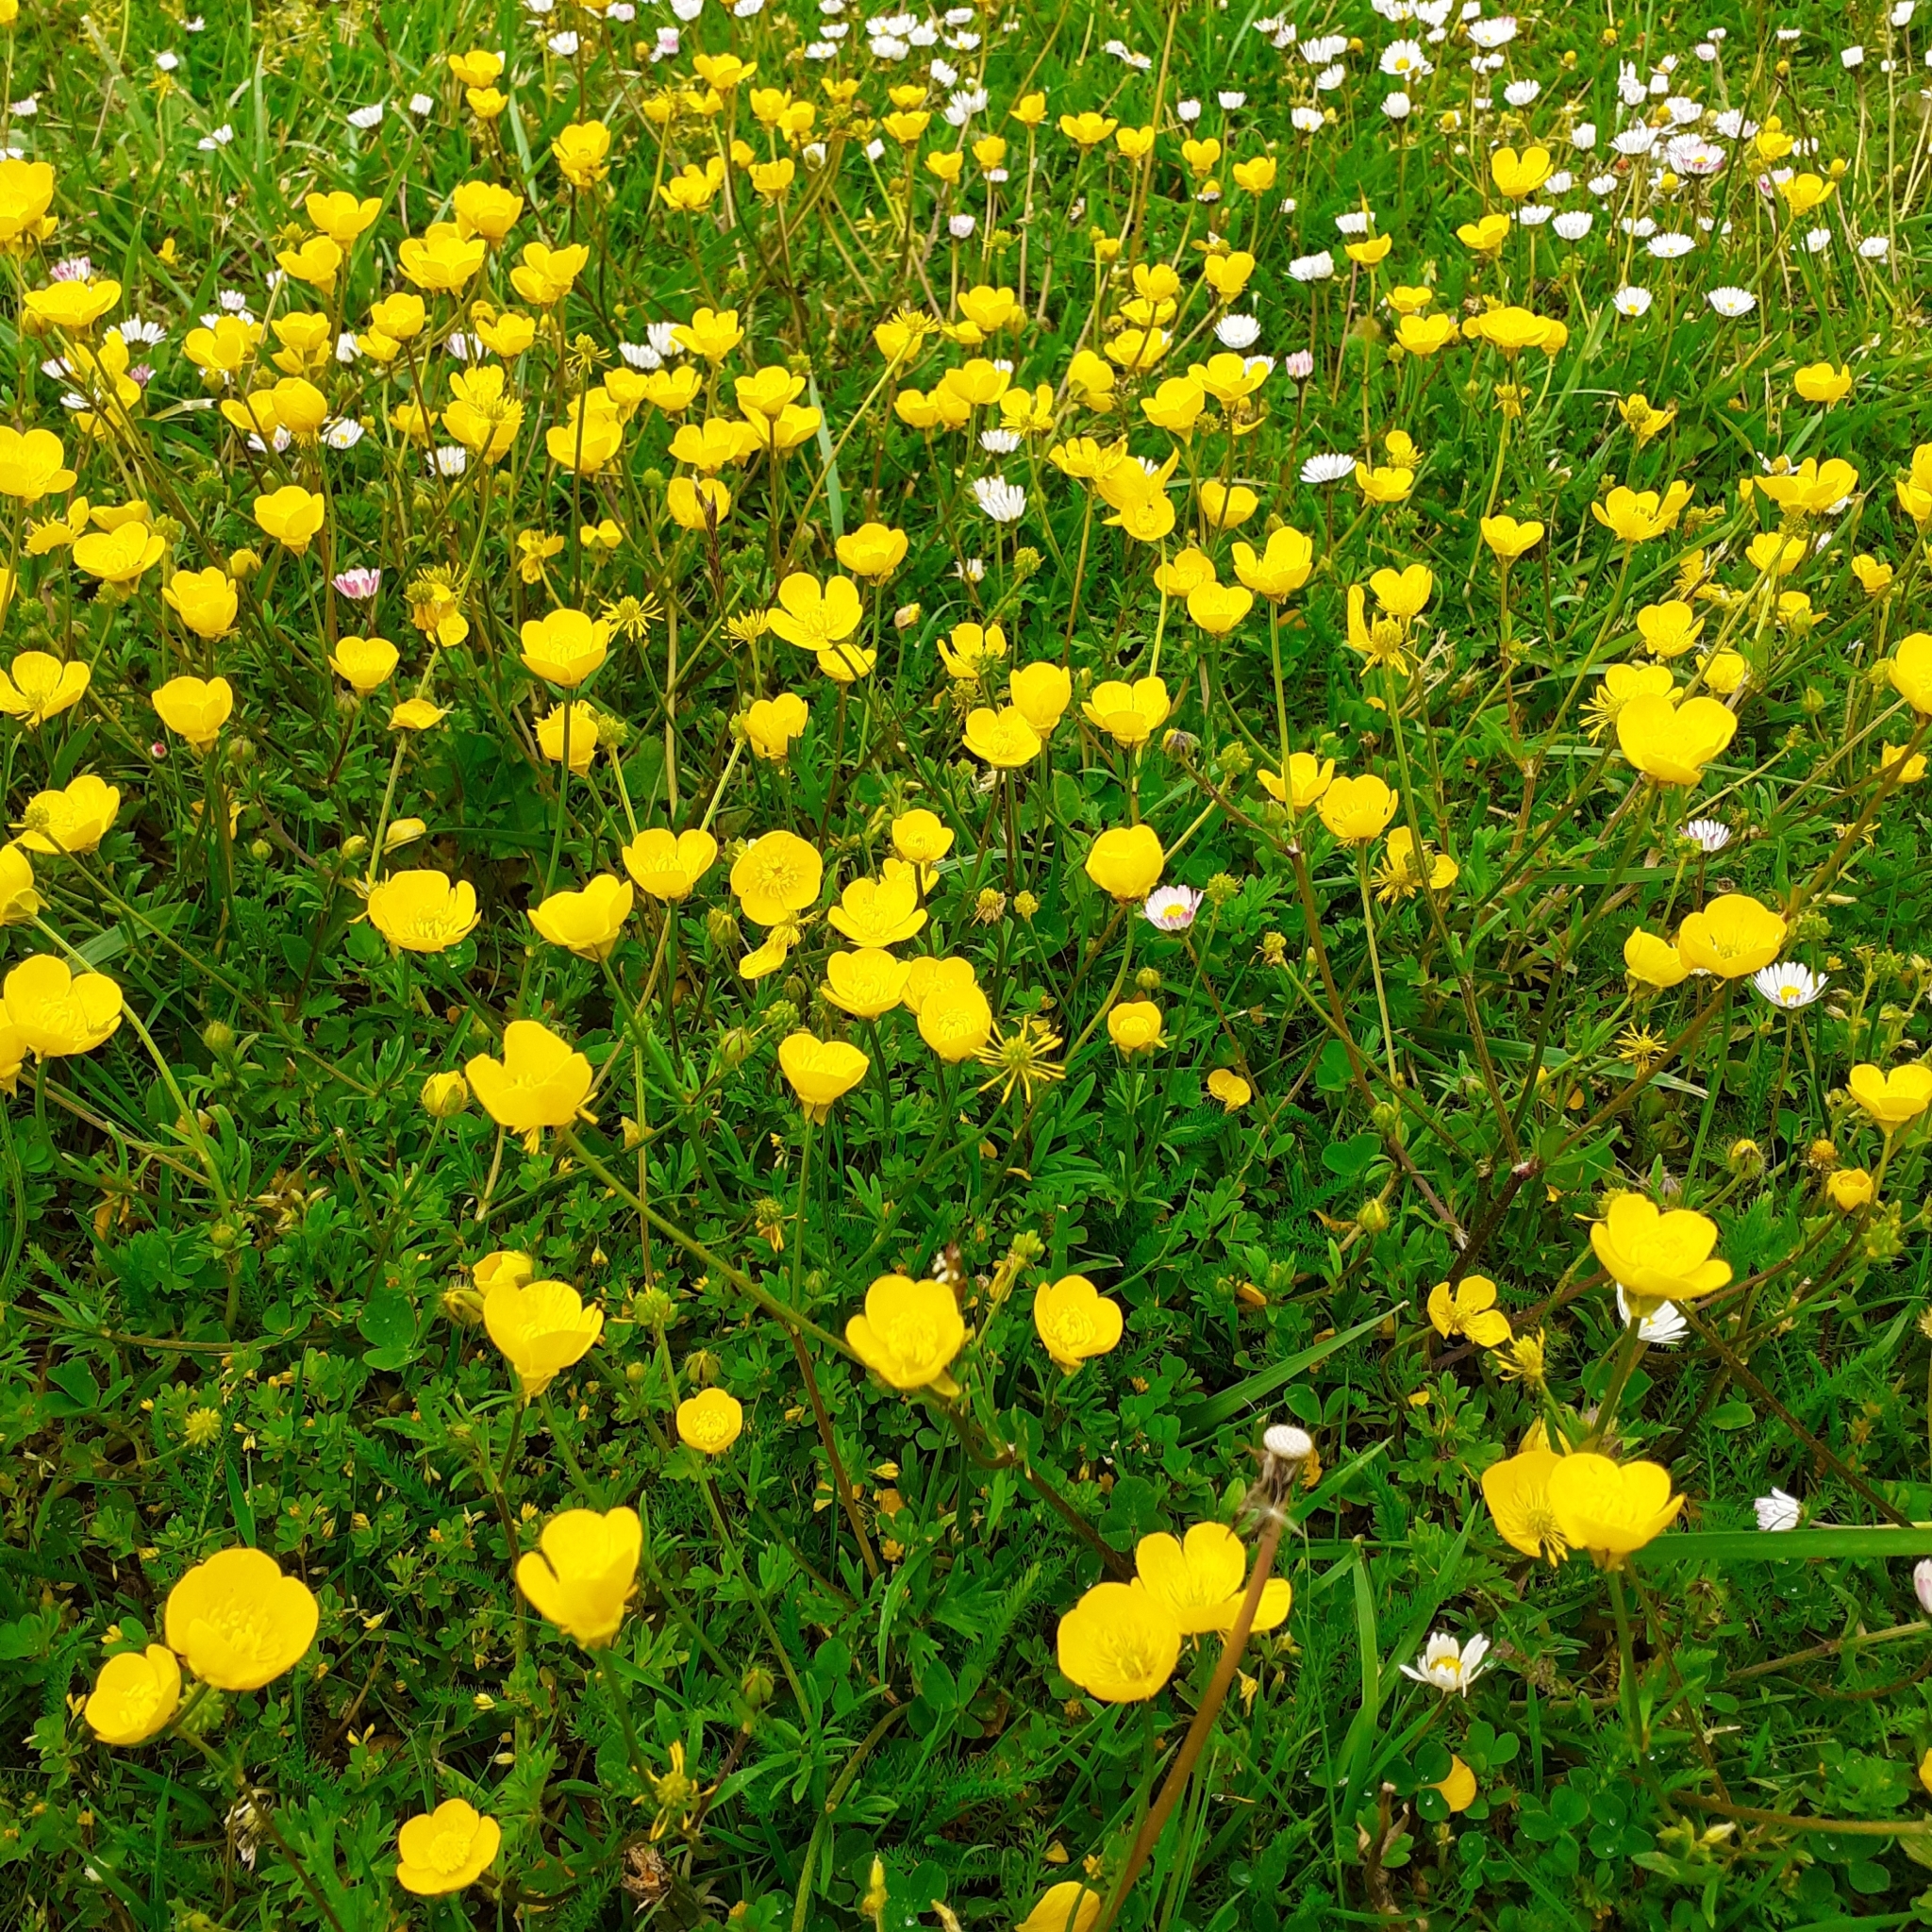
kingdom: Plantae
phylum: Tracheophyta
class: Magnoliopsida
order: Ranunculales
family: Ranunculaceae
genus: Ranunculus
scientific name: Ranunculus bulbosus
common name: Bulbous buttercup
